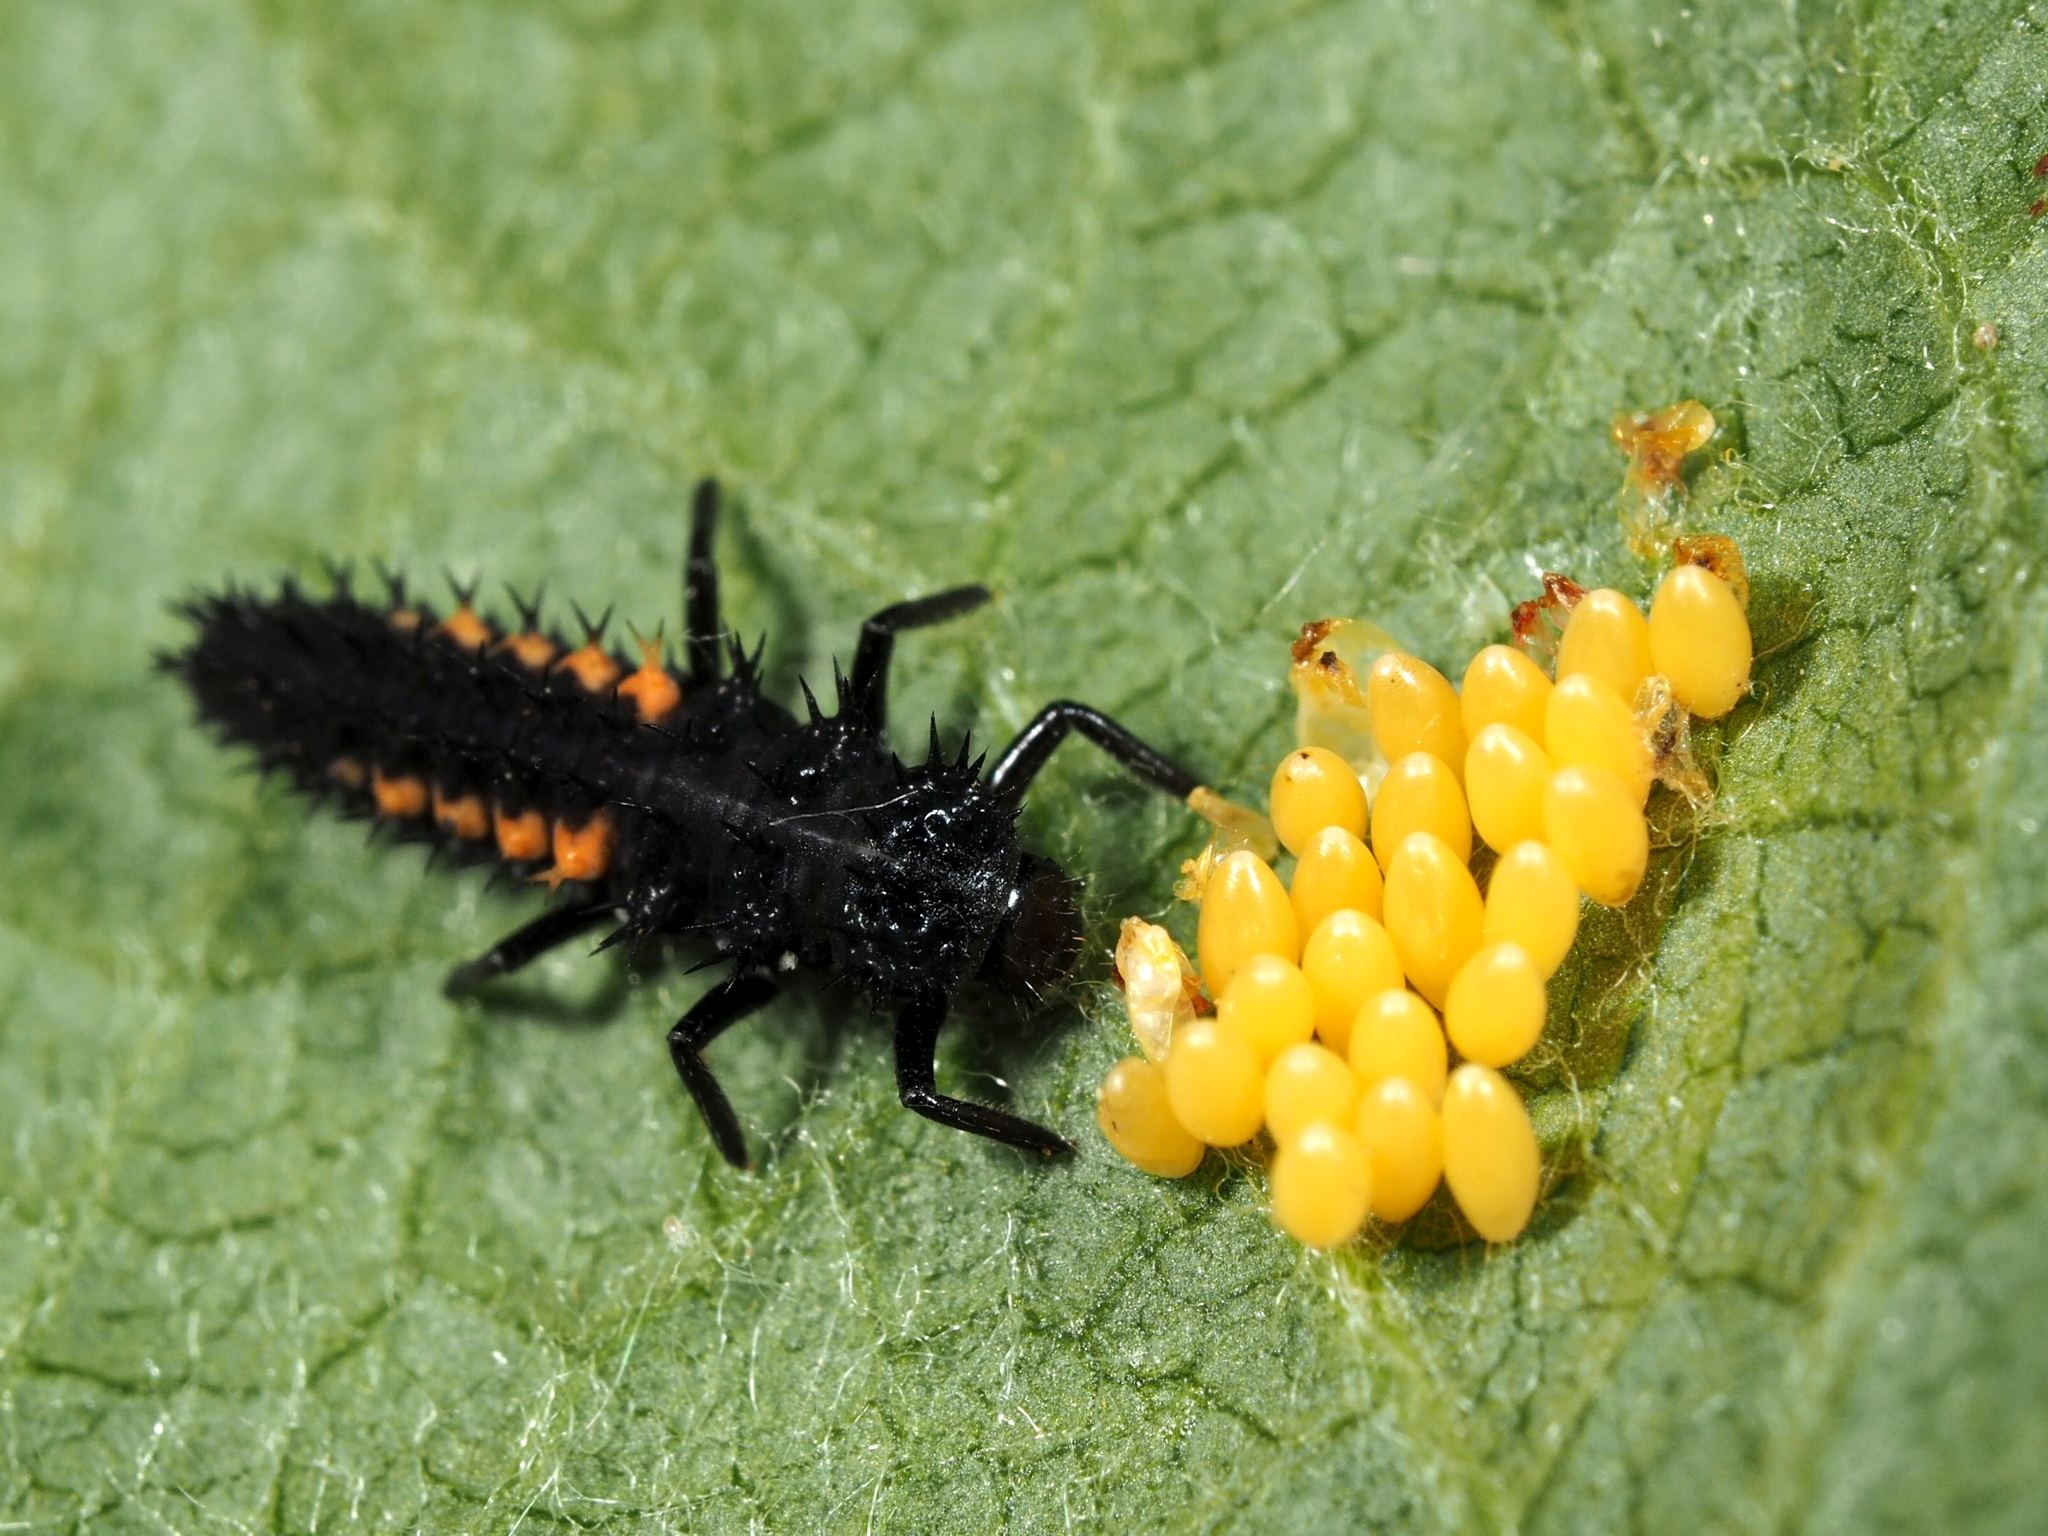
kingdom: Animalia
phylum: Arthropoda
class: Insecta
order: Coleoptera
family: Coccinellidae
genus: Harmonia
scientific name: Harmonia axyridis
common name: Harlequin ladybird
